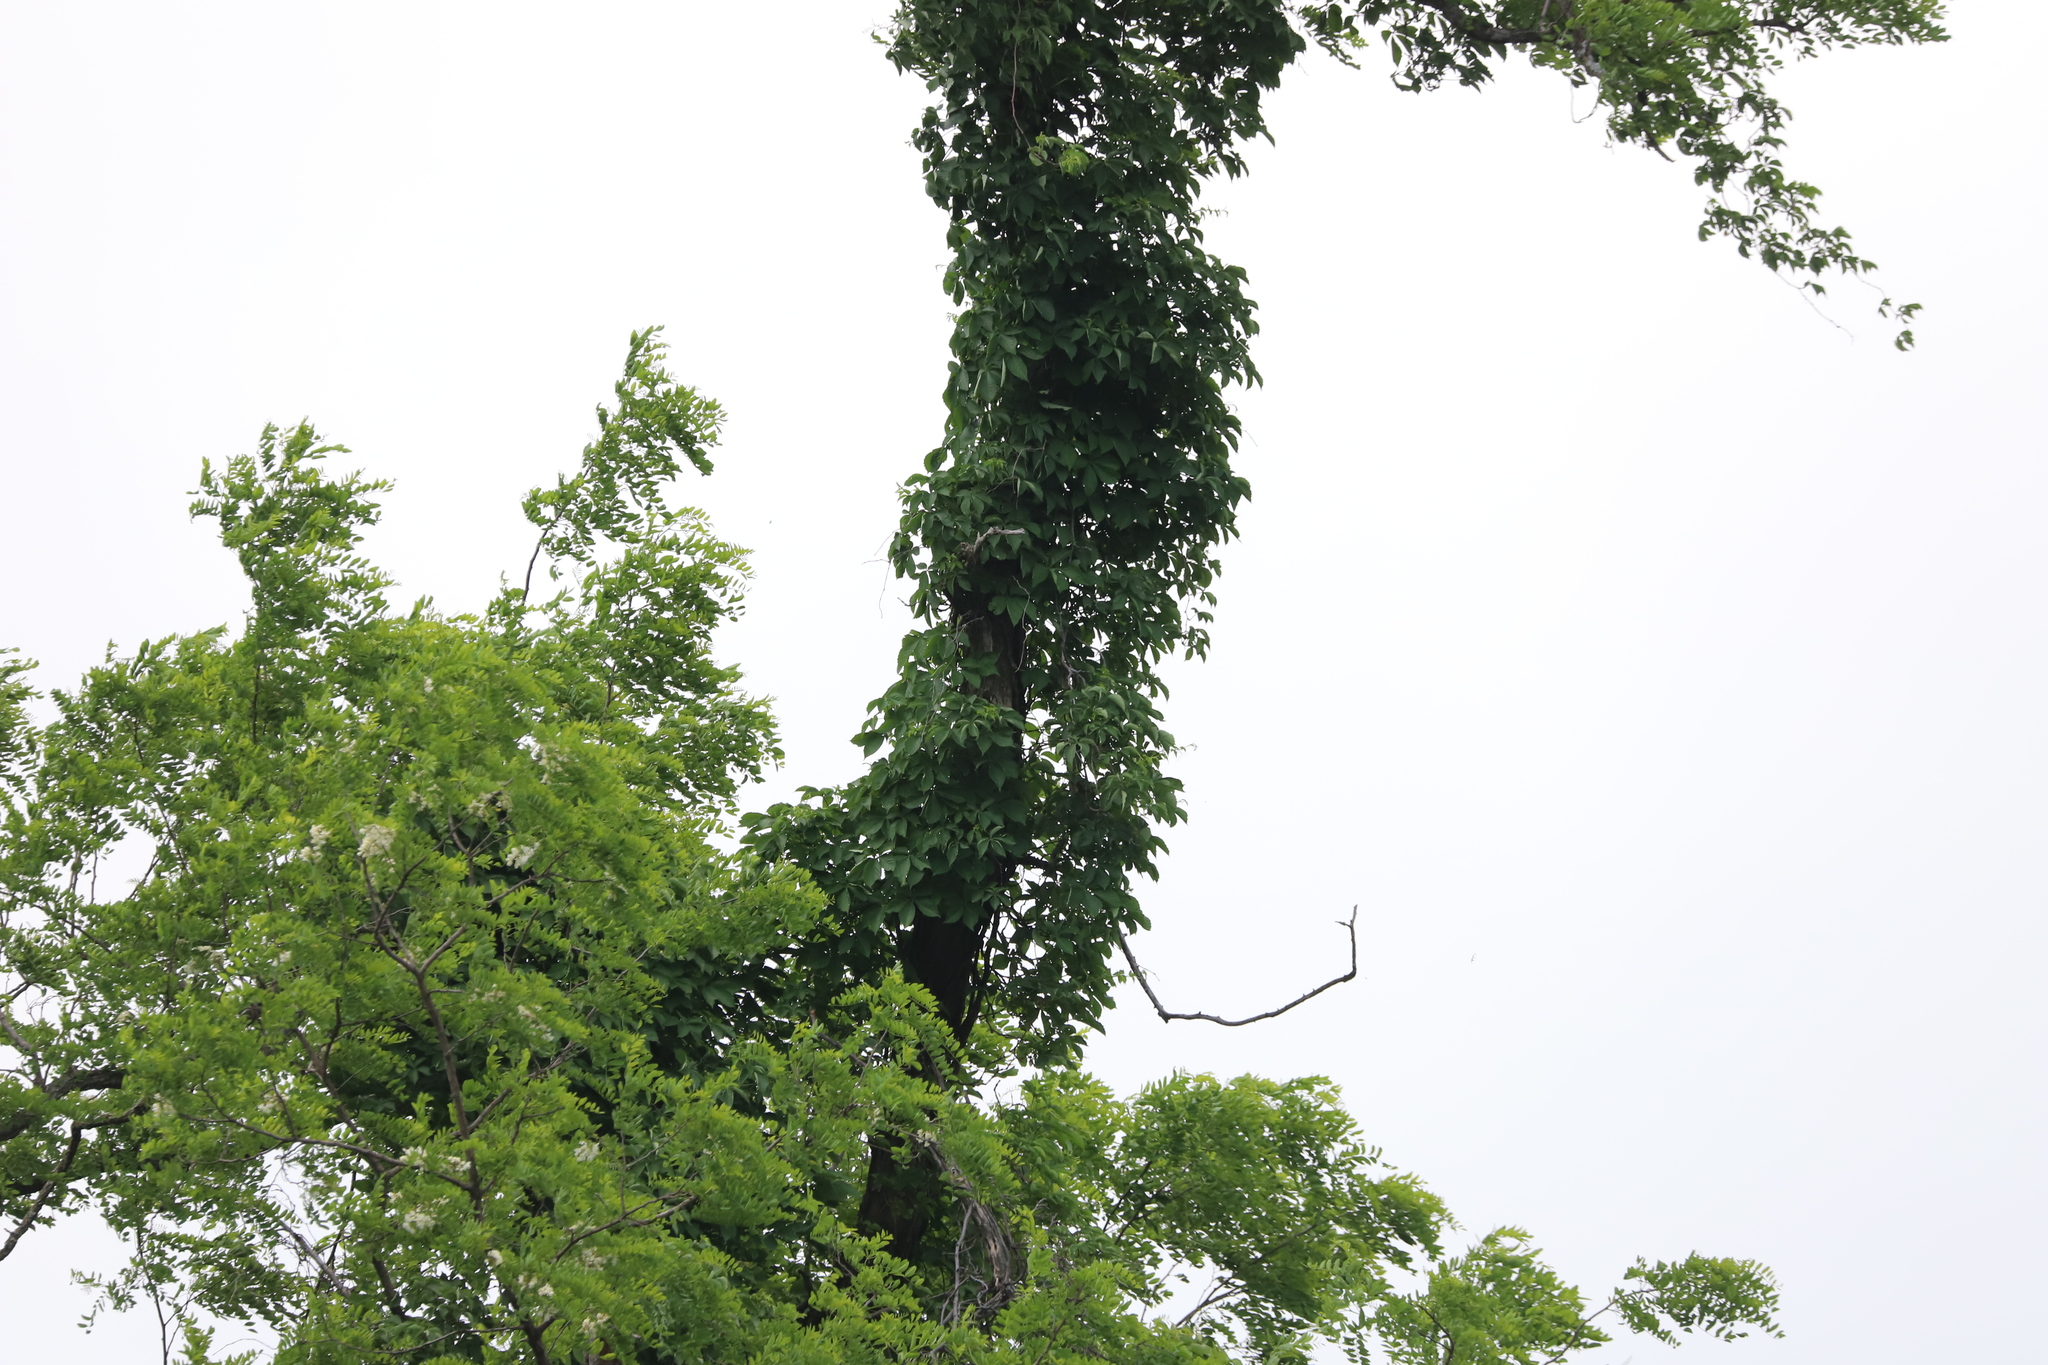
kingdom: Plantae
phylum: Tracheophyta
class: Magnoliopsida
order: Vitales
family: Vitaceae
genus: Parthenocissus
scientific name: Parthenocissus quinquefolia
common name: Virginia-creeper
